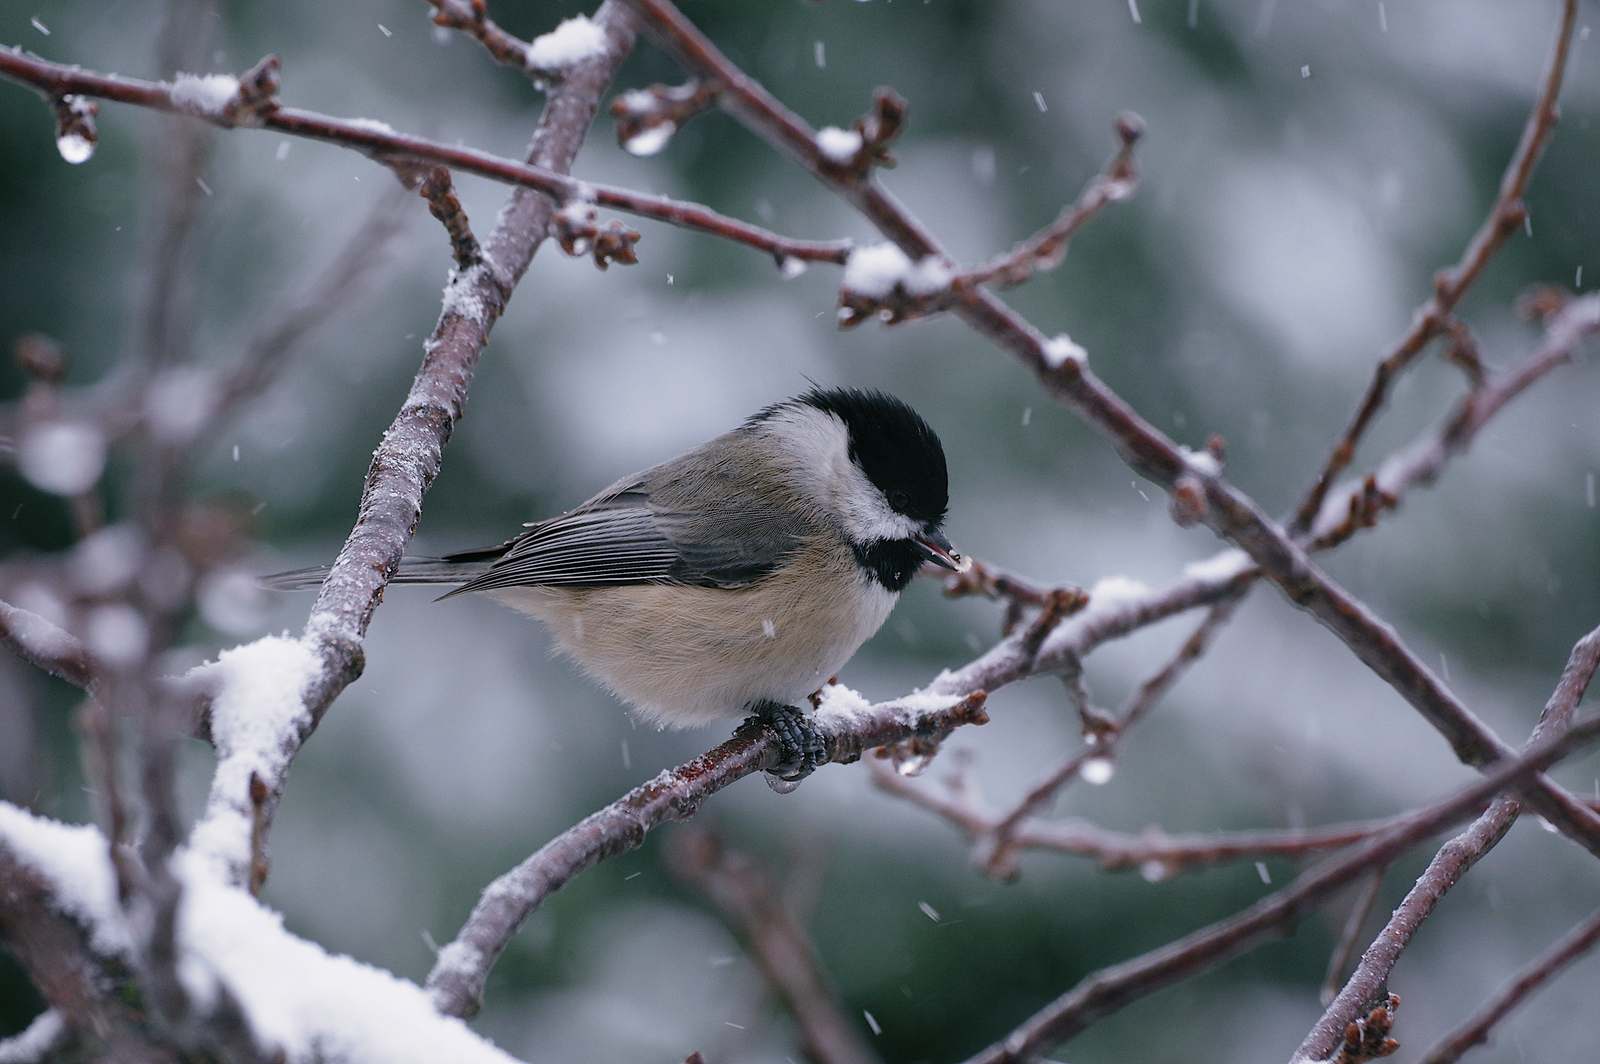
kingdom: Animalia
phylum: Chordata
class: Aves
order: Passeriformes
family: Paridae
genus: Poecile
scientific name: Poecile atricapillus
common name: Black-capped chickadee
